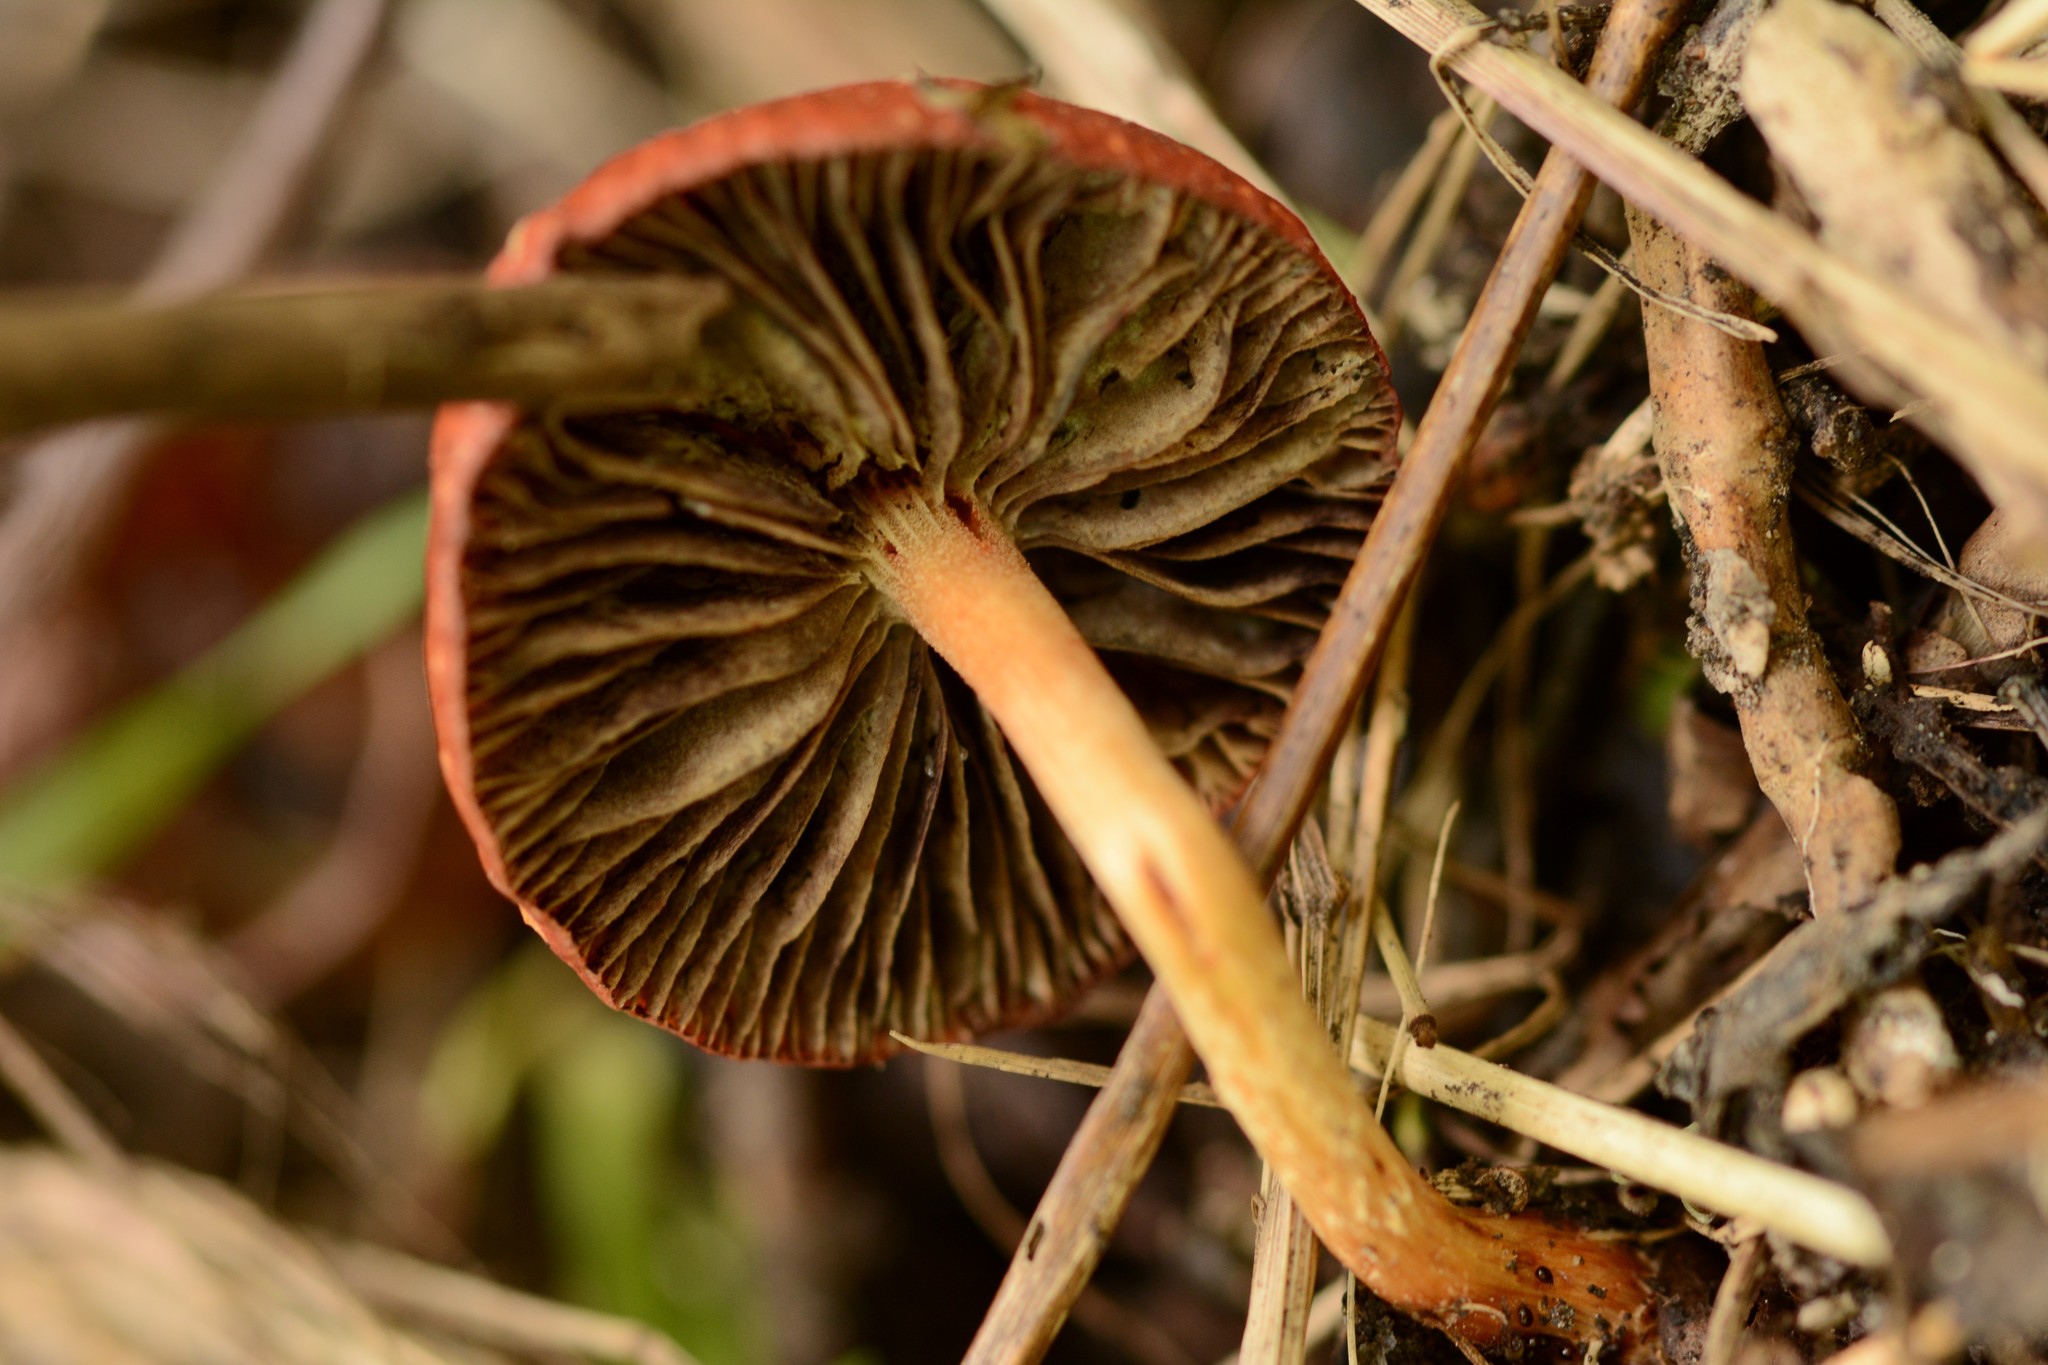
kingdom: Fungi
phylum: Basidiomycota
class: Agaricomycetes
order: Agaricales
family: Strophariaceae
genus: Leratiomyces
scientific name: Leratiomyces ceres
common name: Redlead roundhead
